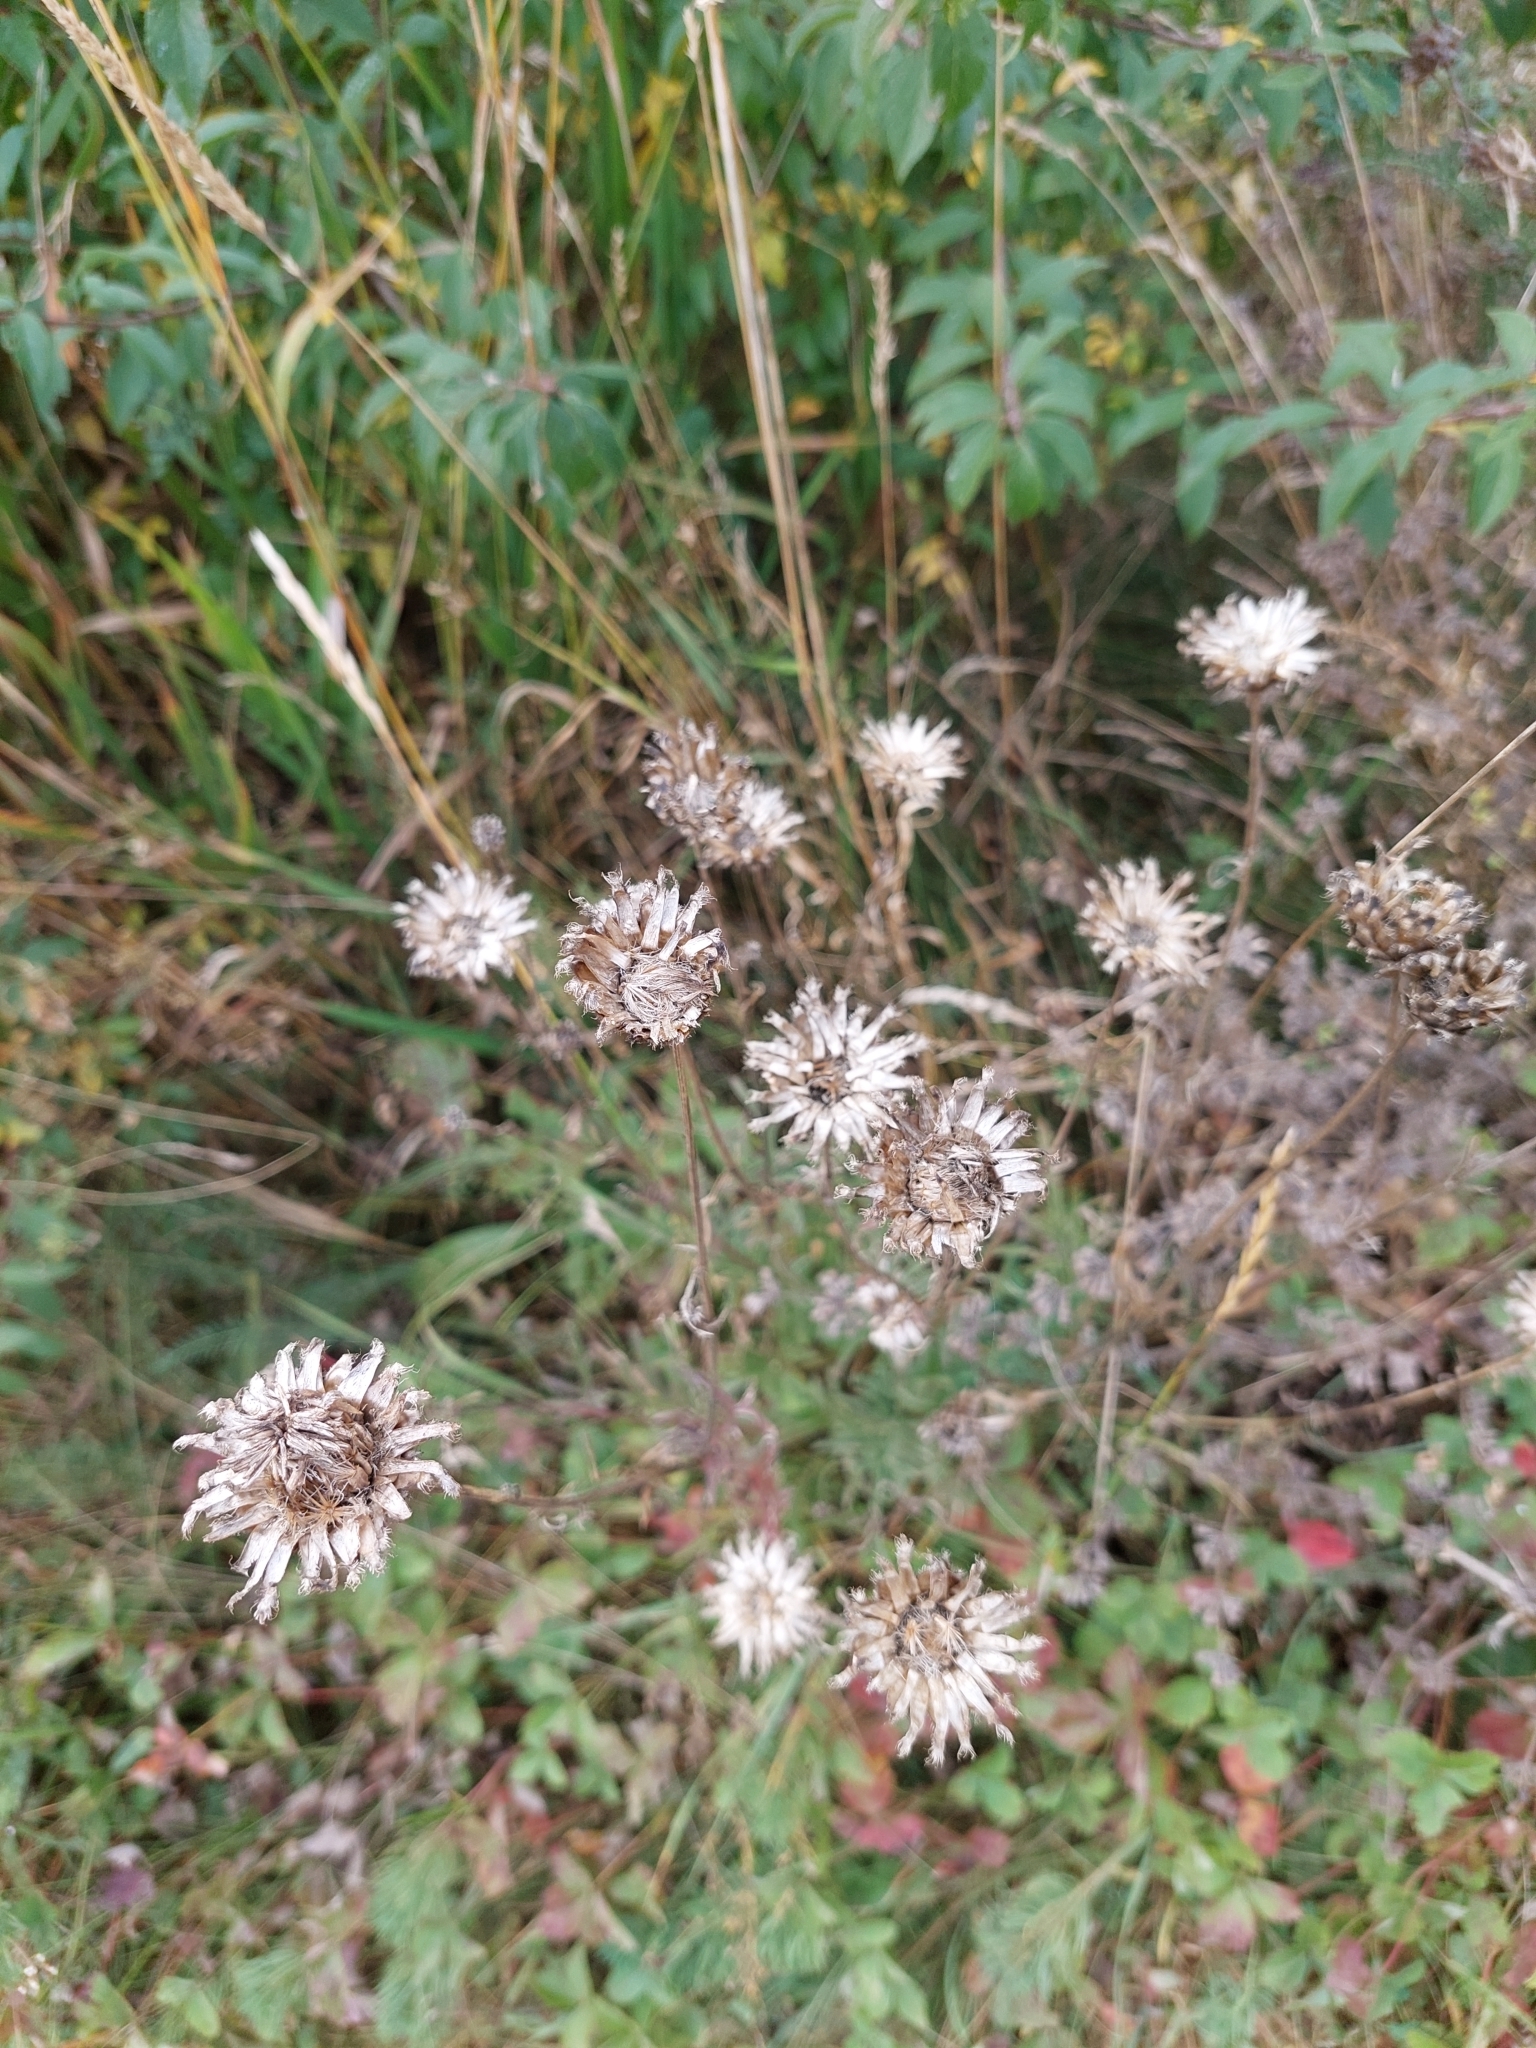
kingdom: Plantae
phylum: Tracheophyta
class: Magnoliopsida
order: Asterales
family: Asteraceae
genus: Centaurea
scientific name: Centaurea scabiosa
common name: Greater knapweed
